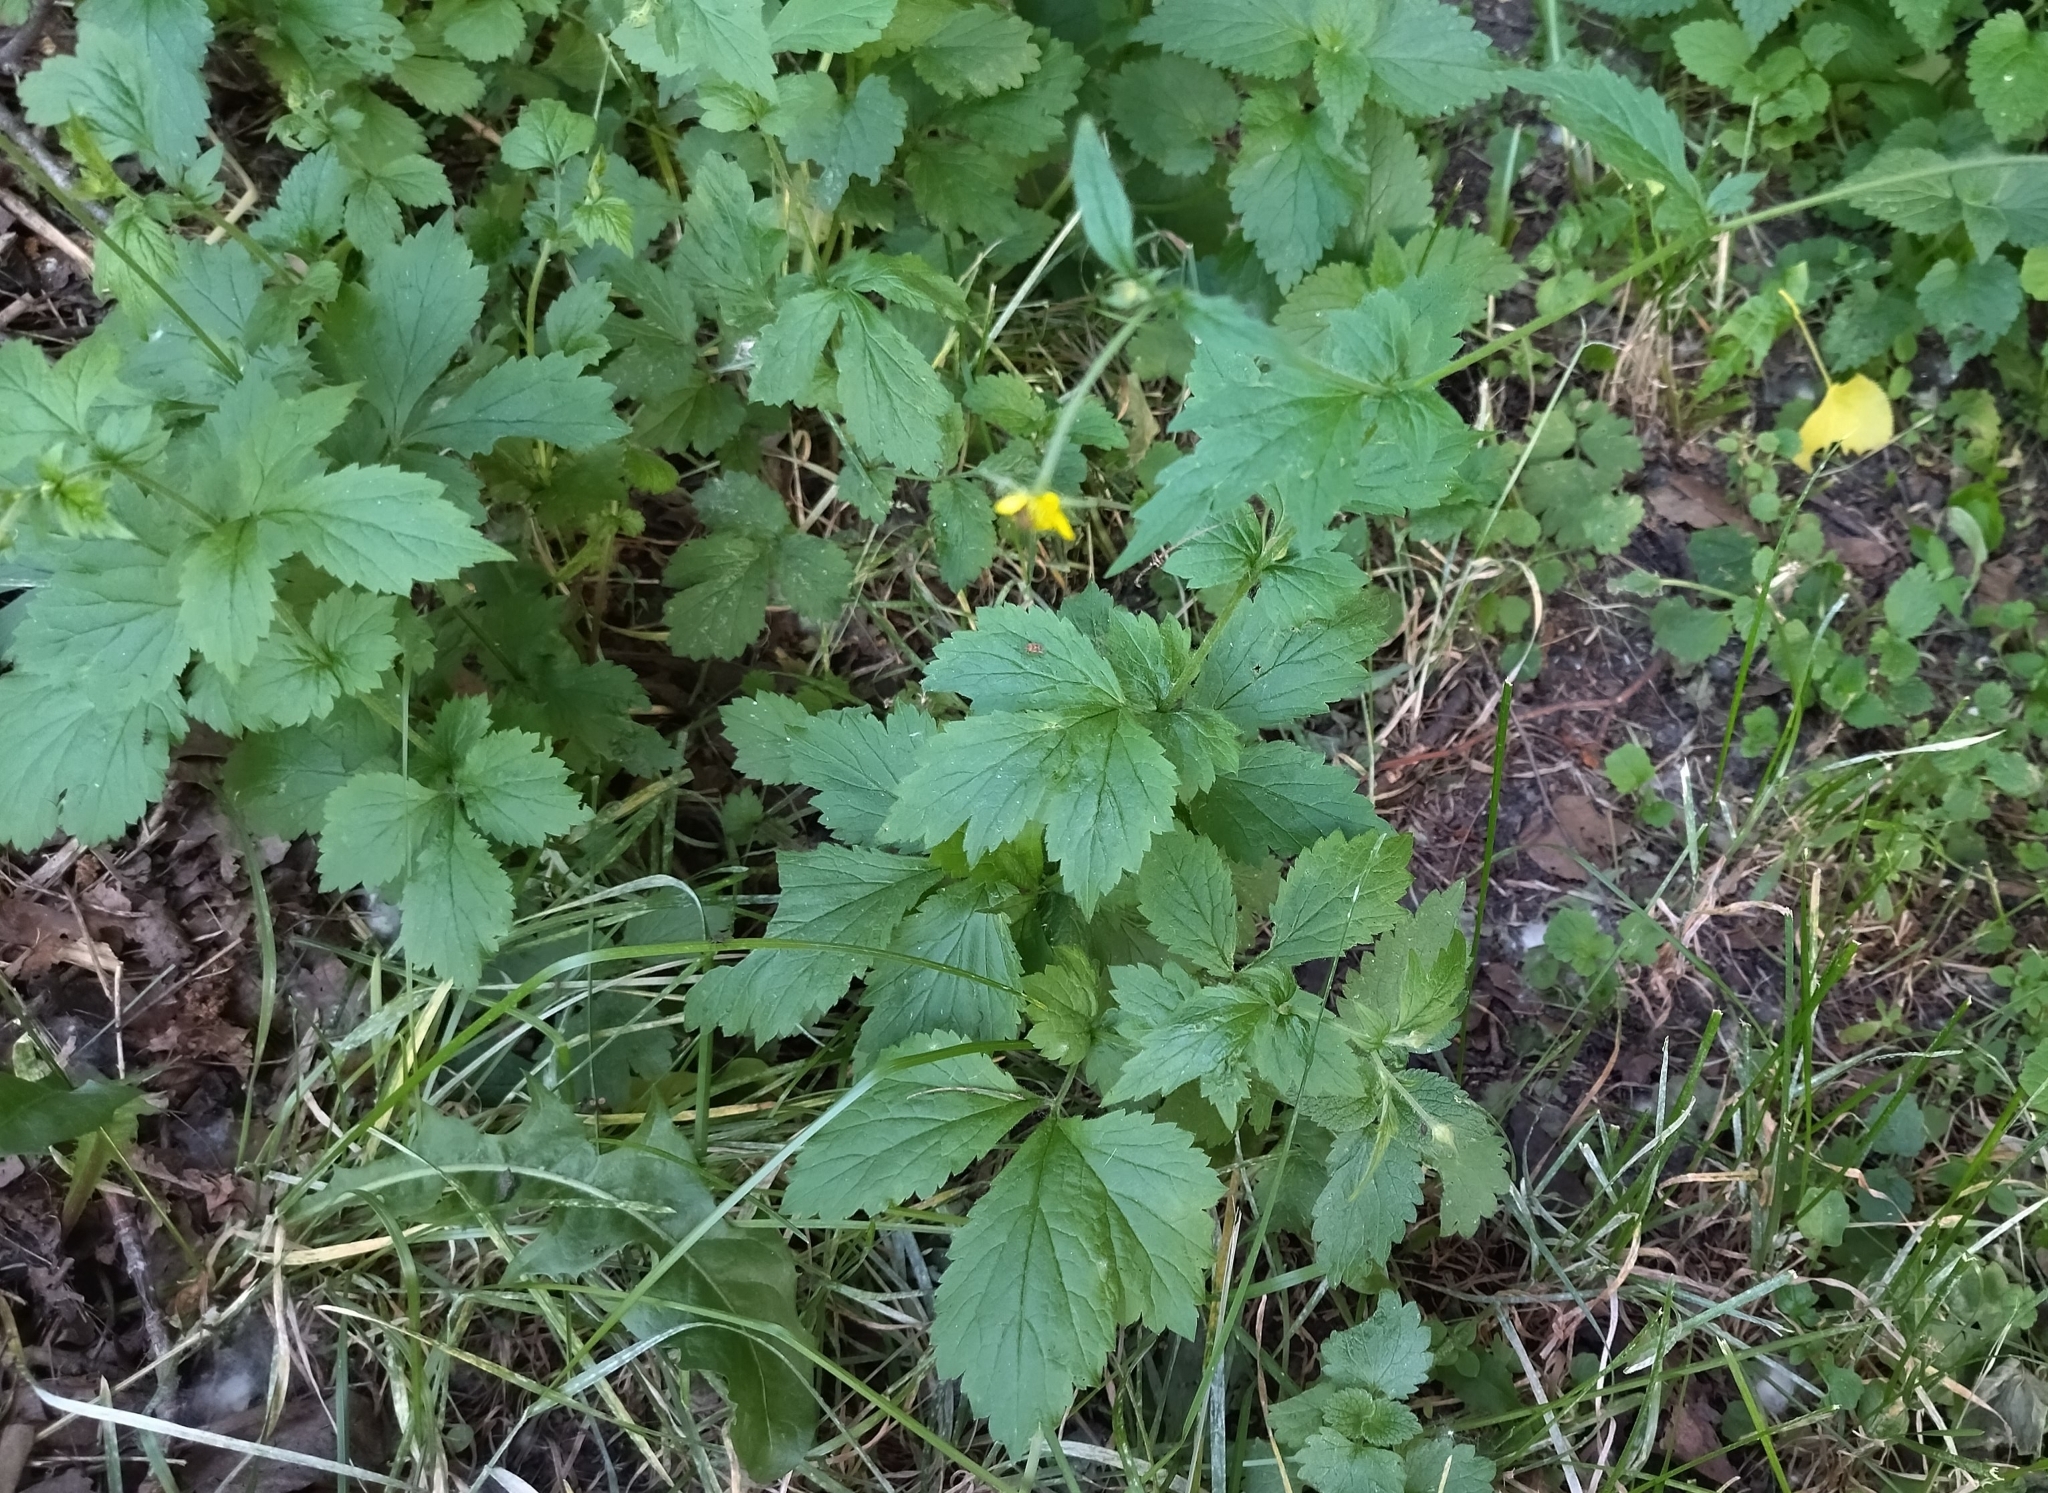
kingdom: Plantae
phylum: Tracheophyta
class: Magnoliopsida
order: Rosales
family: Rosaceae
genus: Geum
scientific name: Geum urbanum
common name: Wood avens
